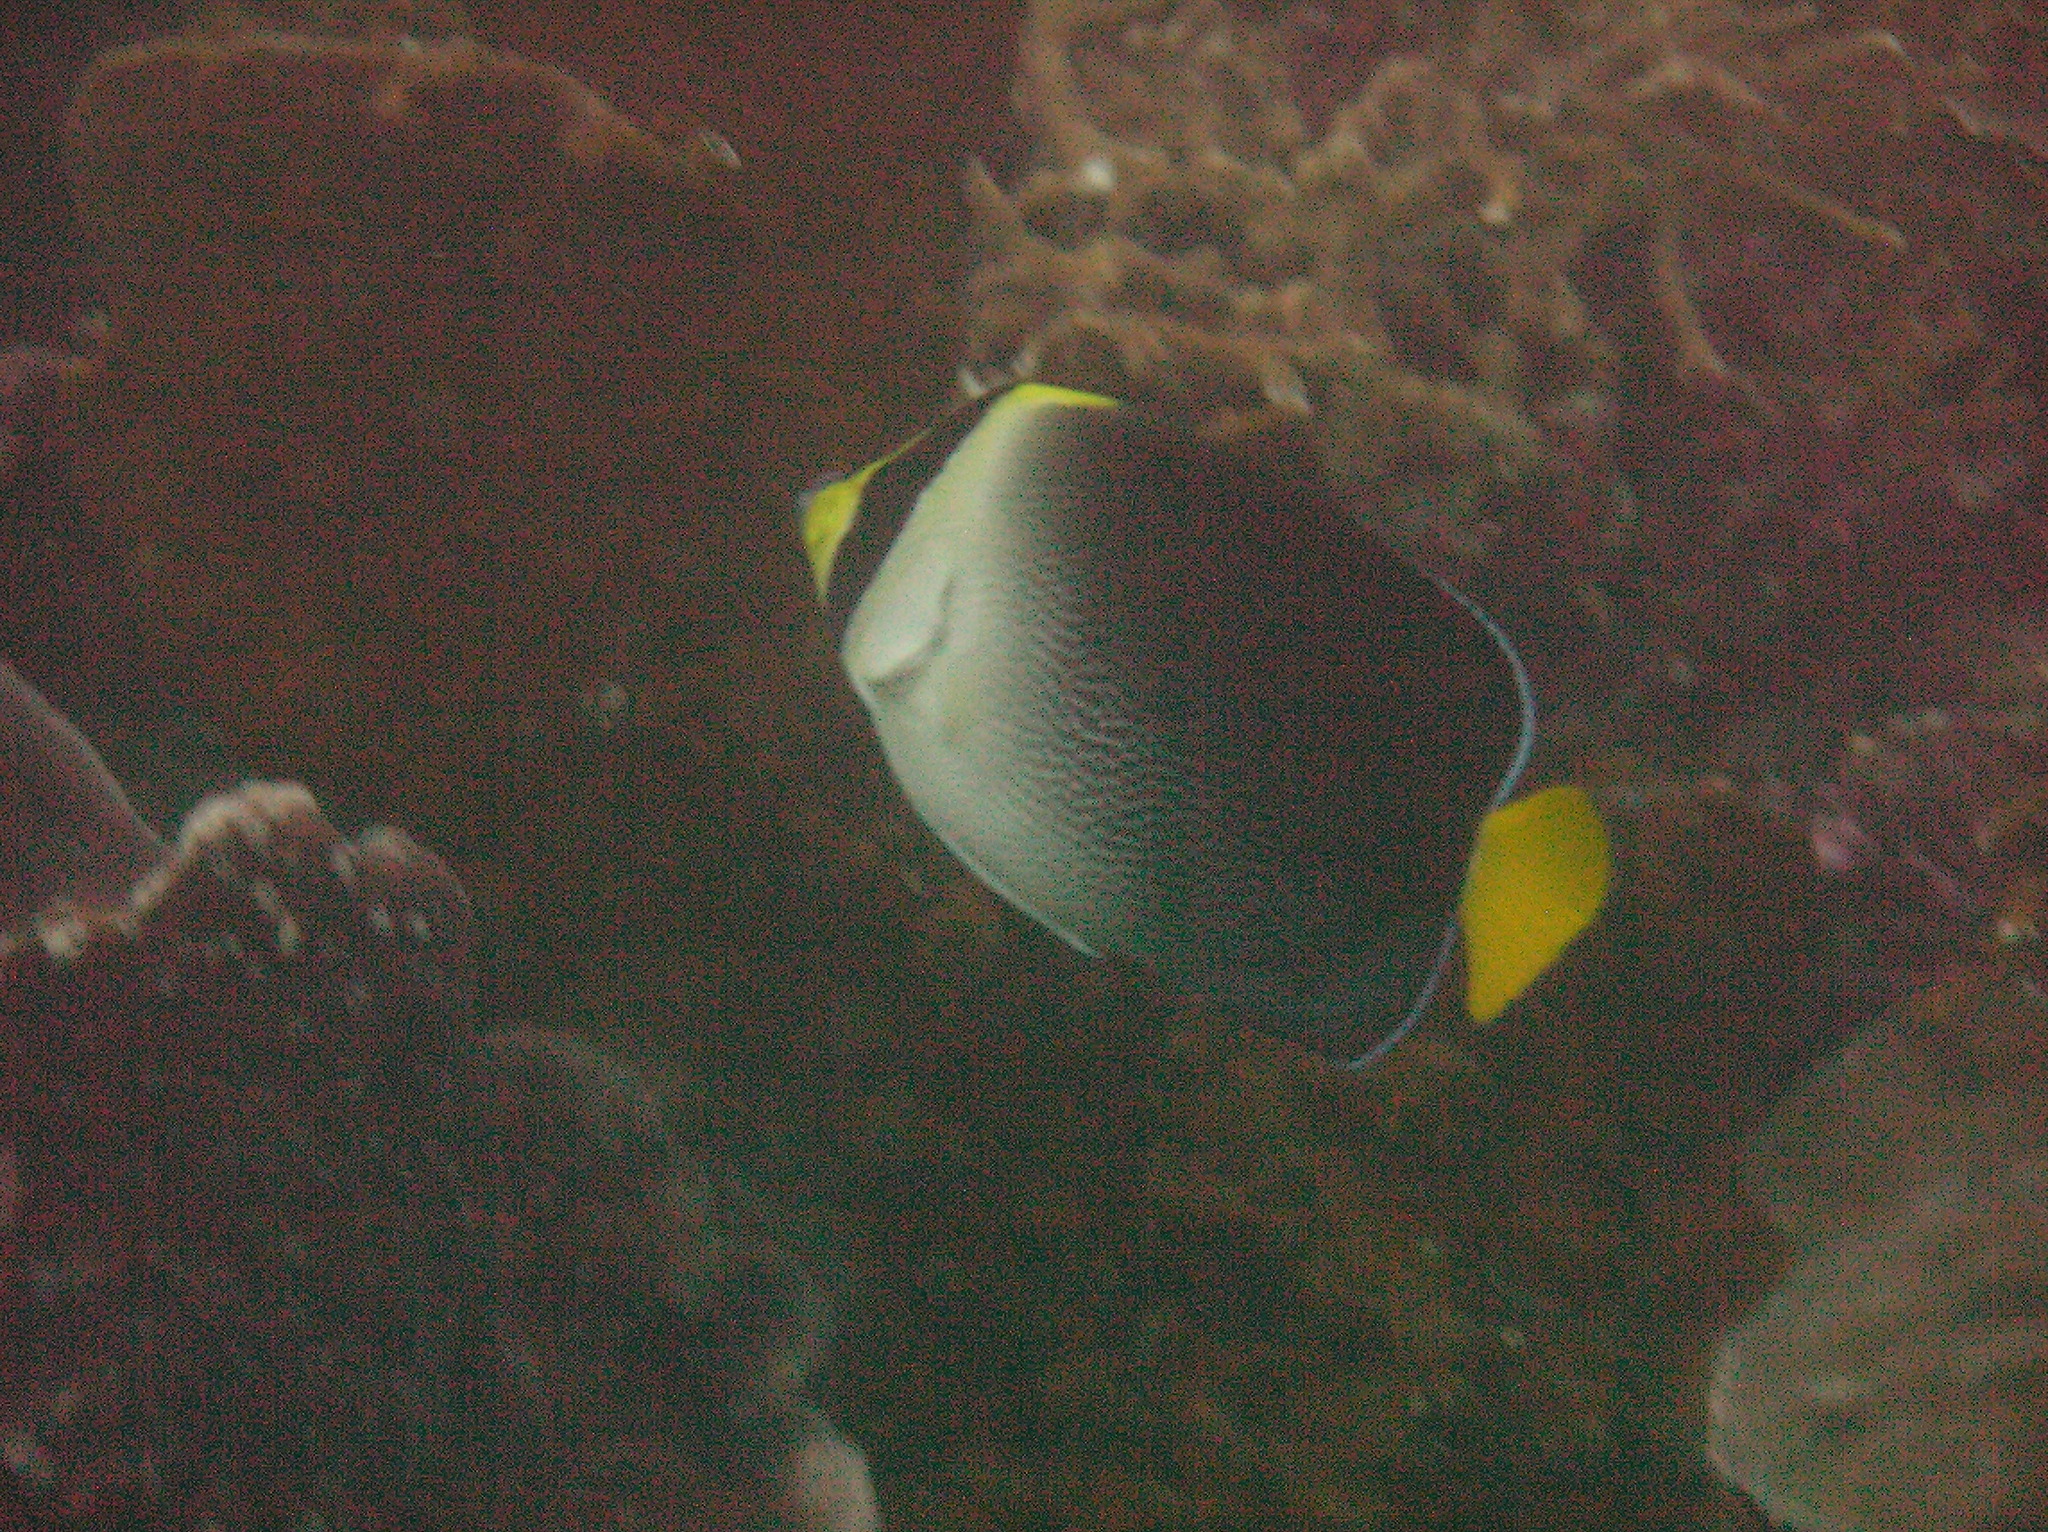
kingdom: Animalia
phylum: Chordata
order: Perciformes
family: Pomacanthidae
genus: Chaetodontoplus
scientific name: Chaetodontoplus mesoleucus
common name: Vermiculated angelfish
